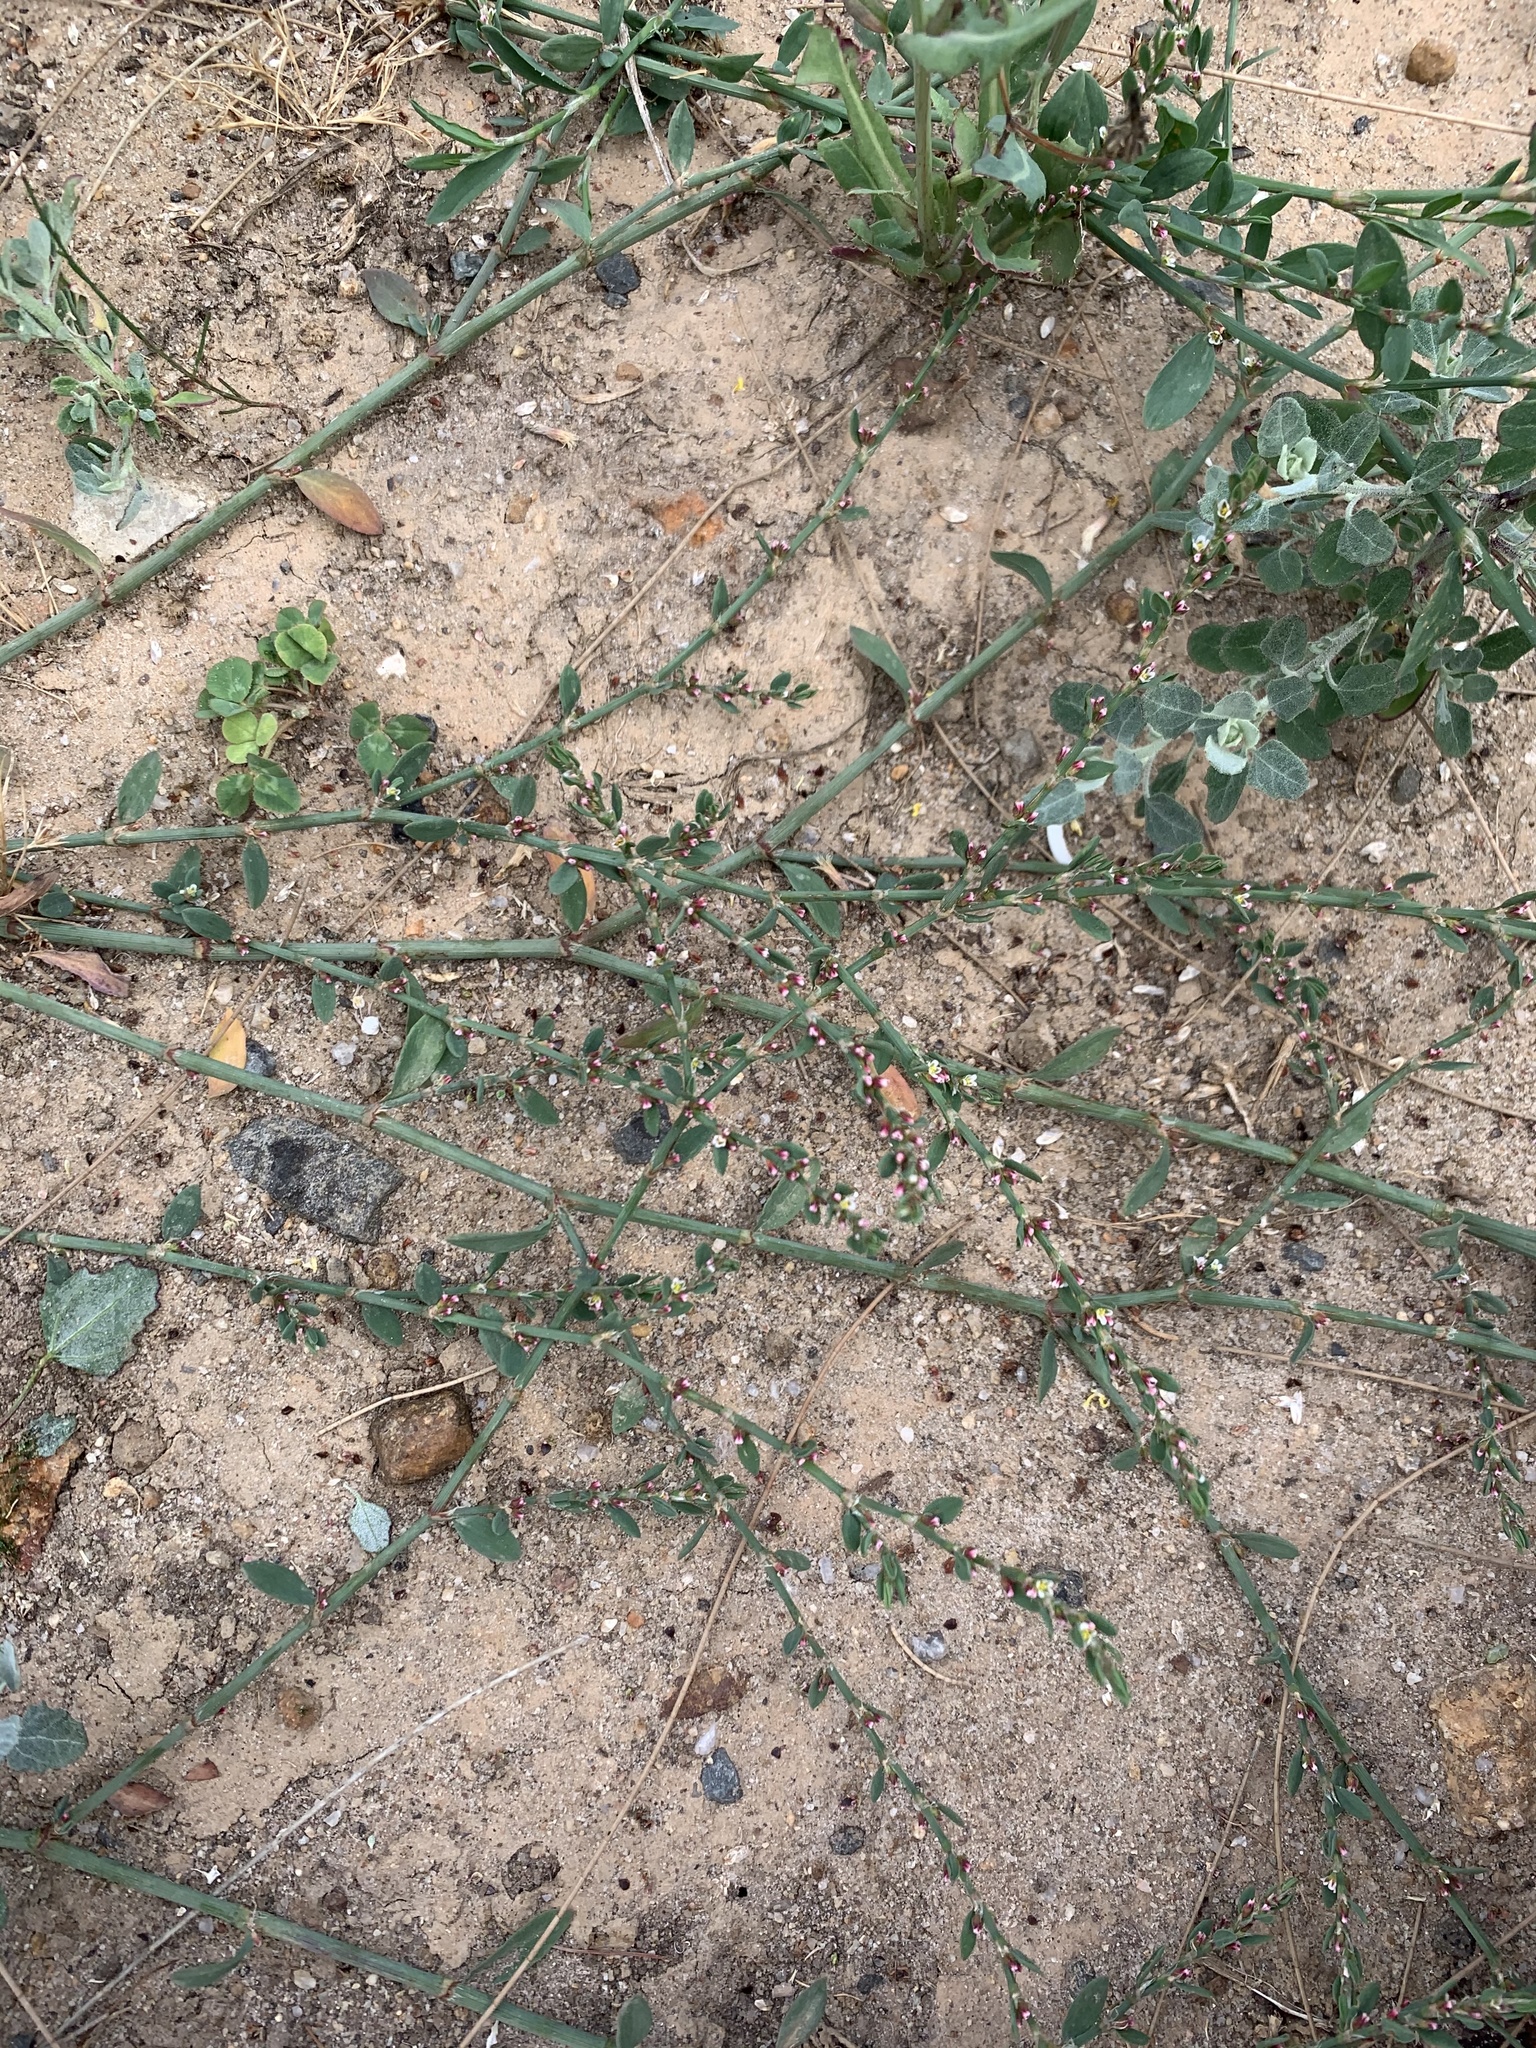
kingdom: Plantae
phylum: Tracheophyta
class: Magnoliopsida
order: Caryophyllales
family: Polygonaceae
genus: Polygonum
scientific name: Polygonum aviculare
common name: Prostrate knotweed
